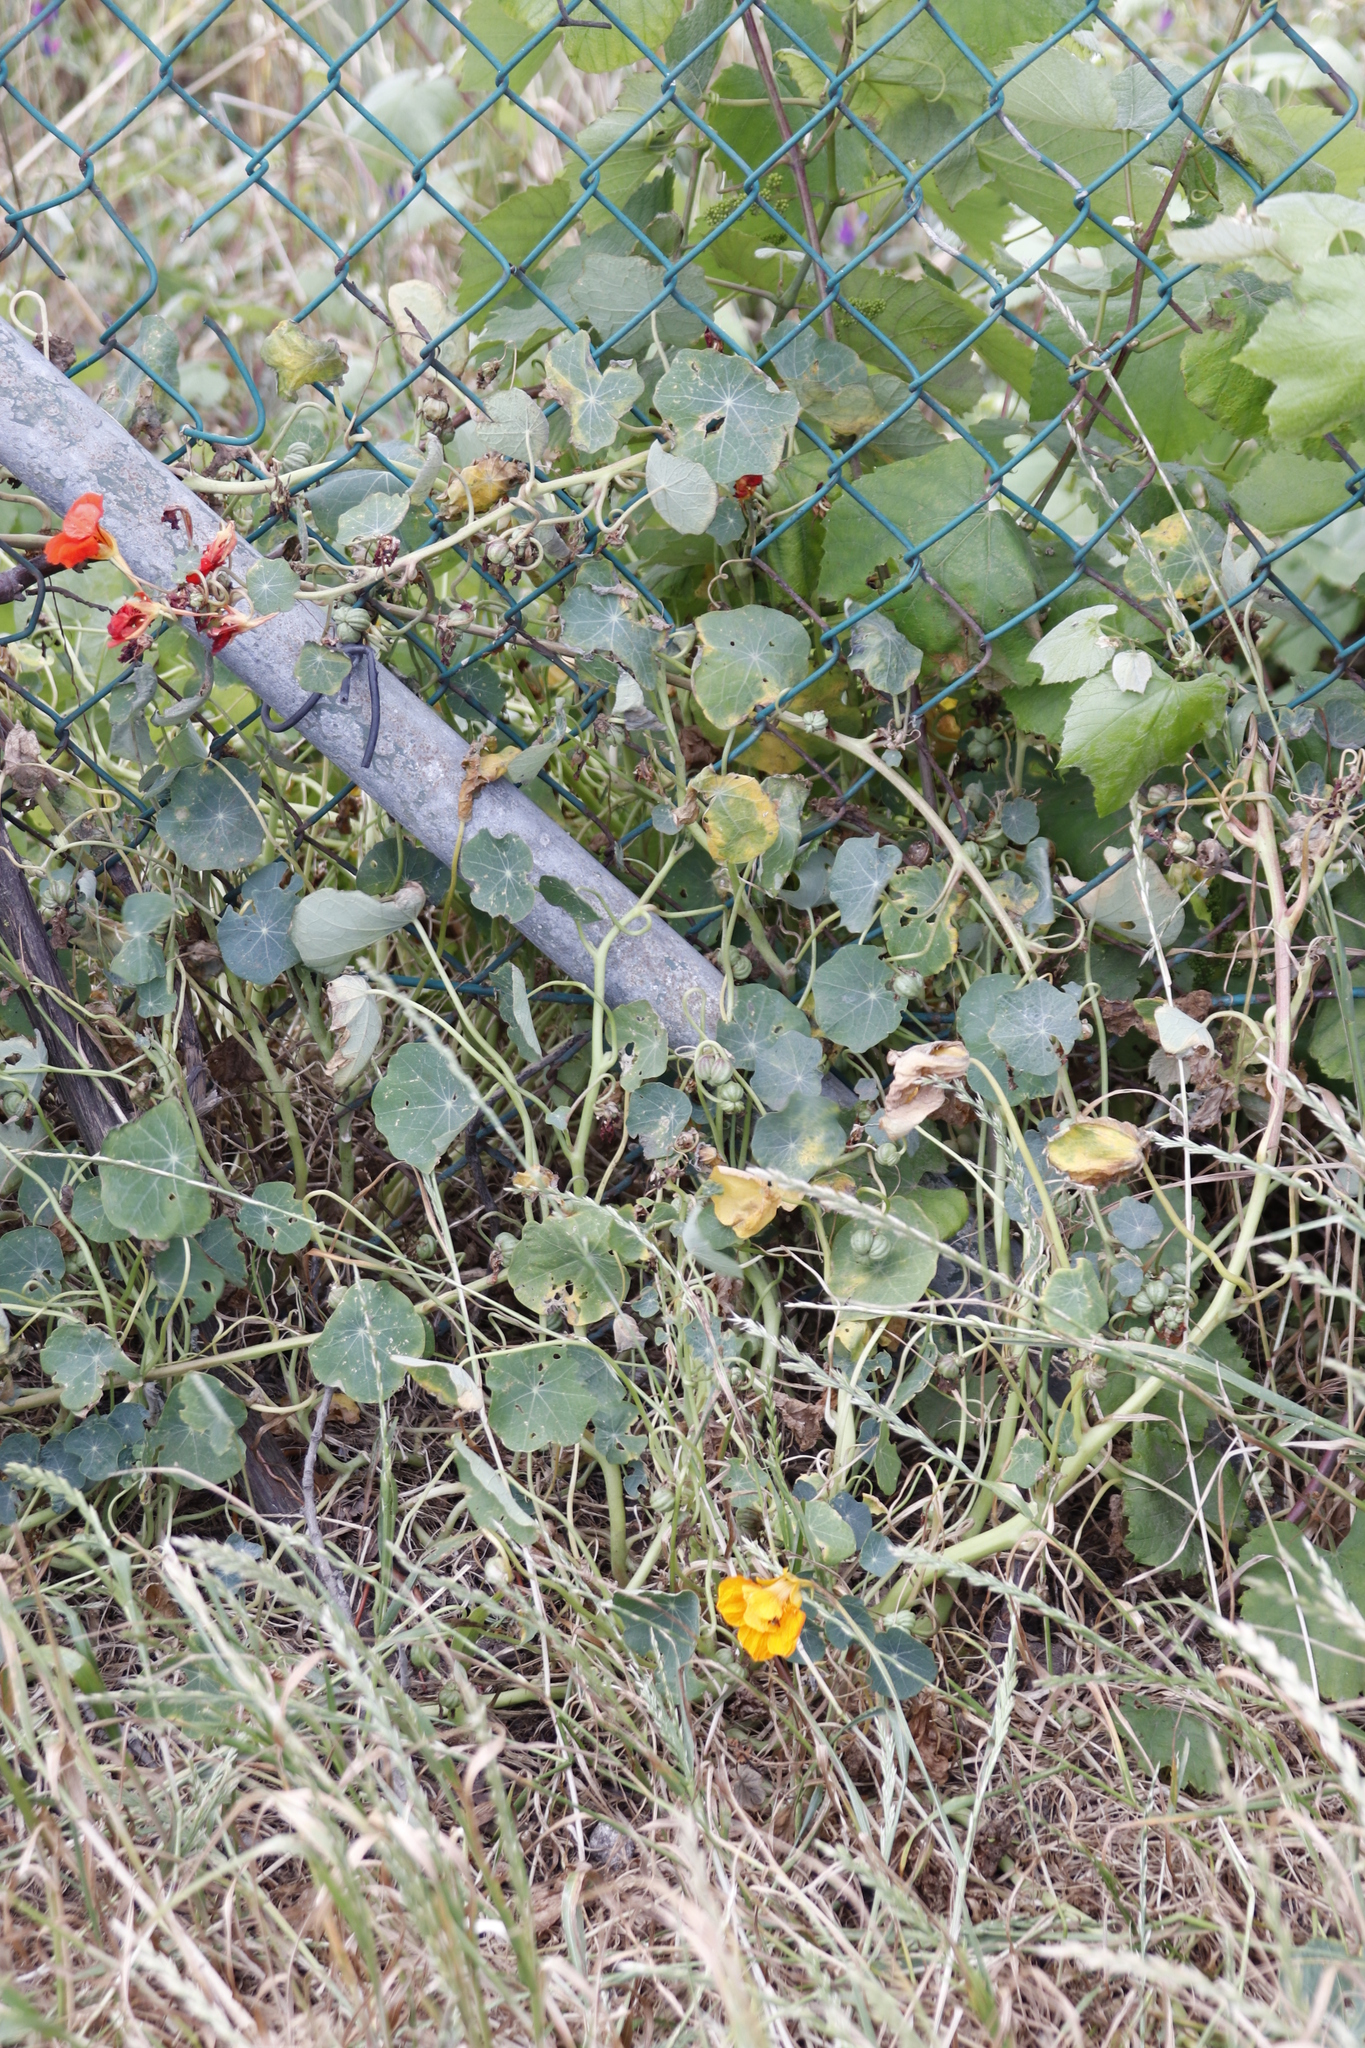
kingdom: Plantae
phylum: Tracheophyta
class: Magnoliopsida
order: Brassicales
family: Tropaeolaceae
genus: Tropaeolum
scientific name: Tropaeolum majus
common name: Nasturtium
